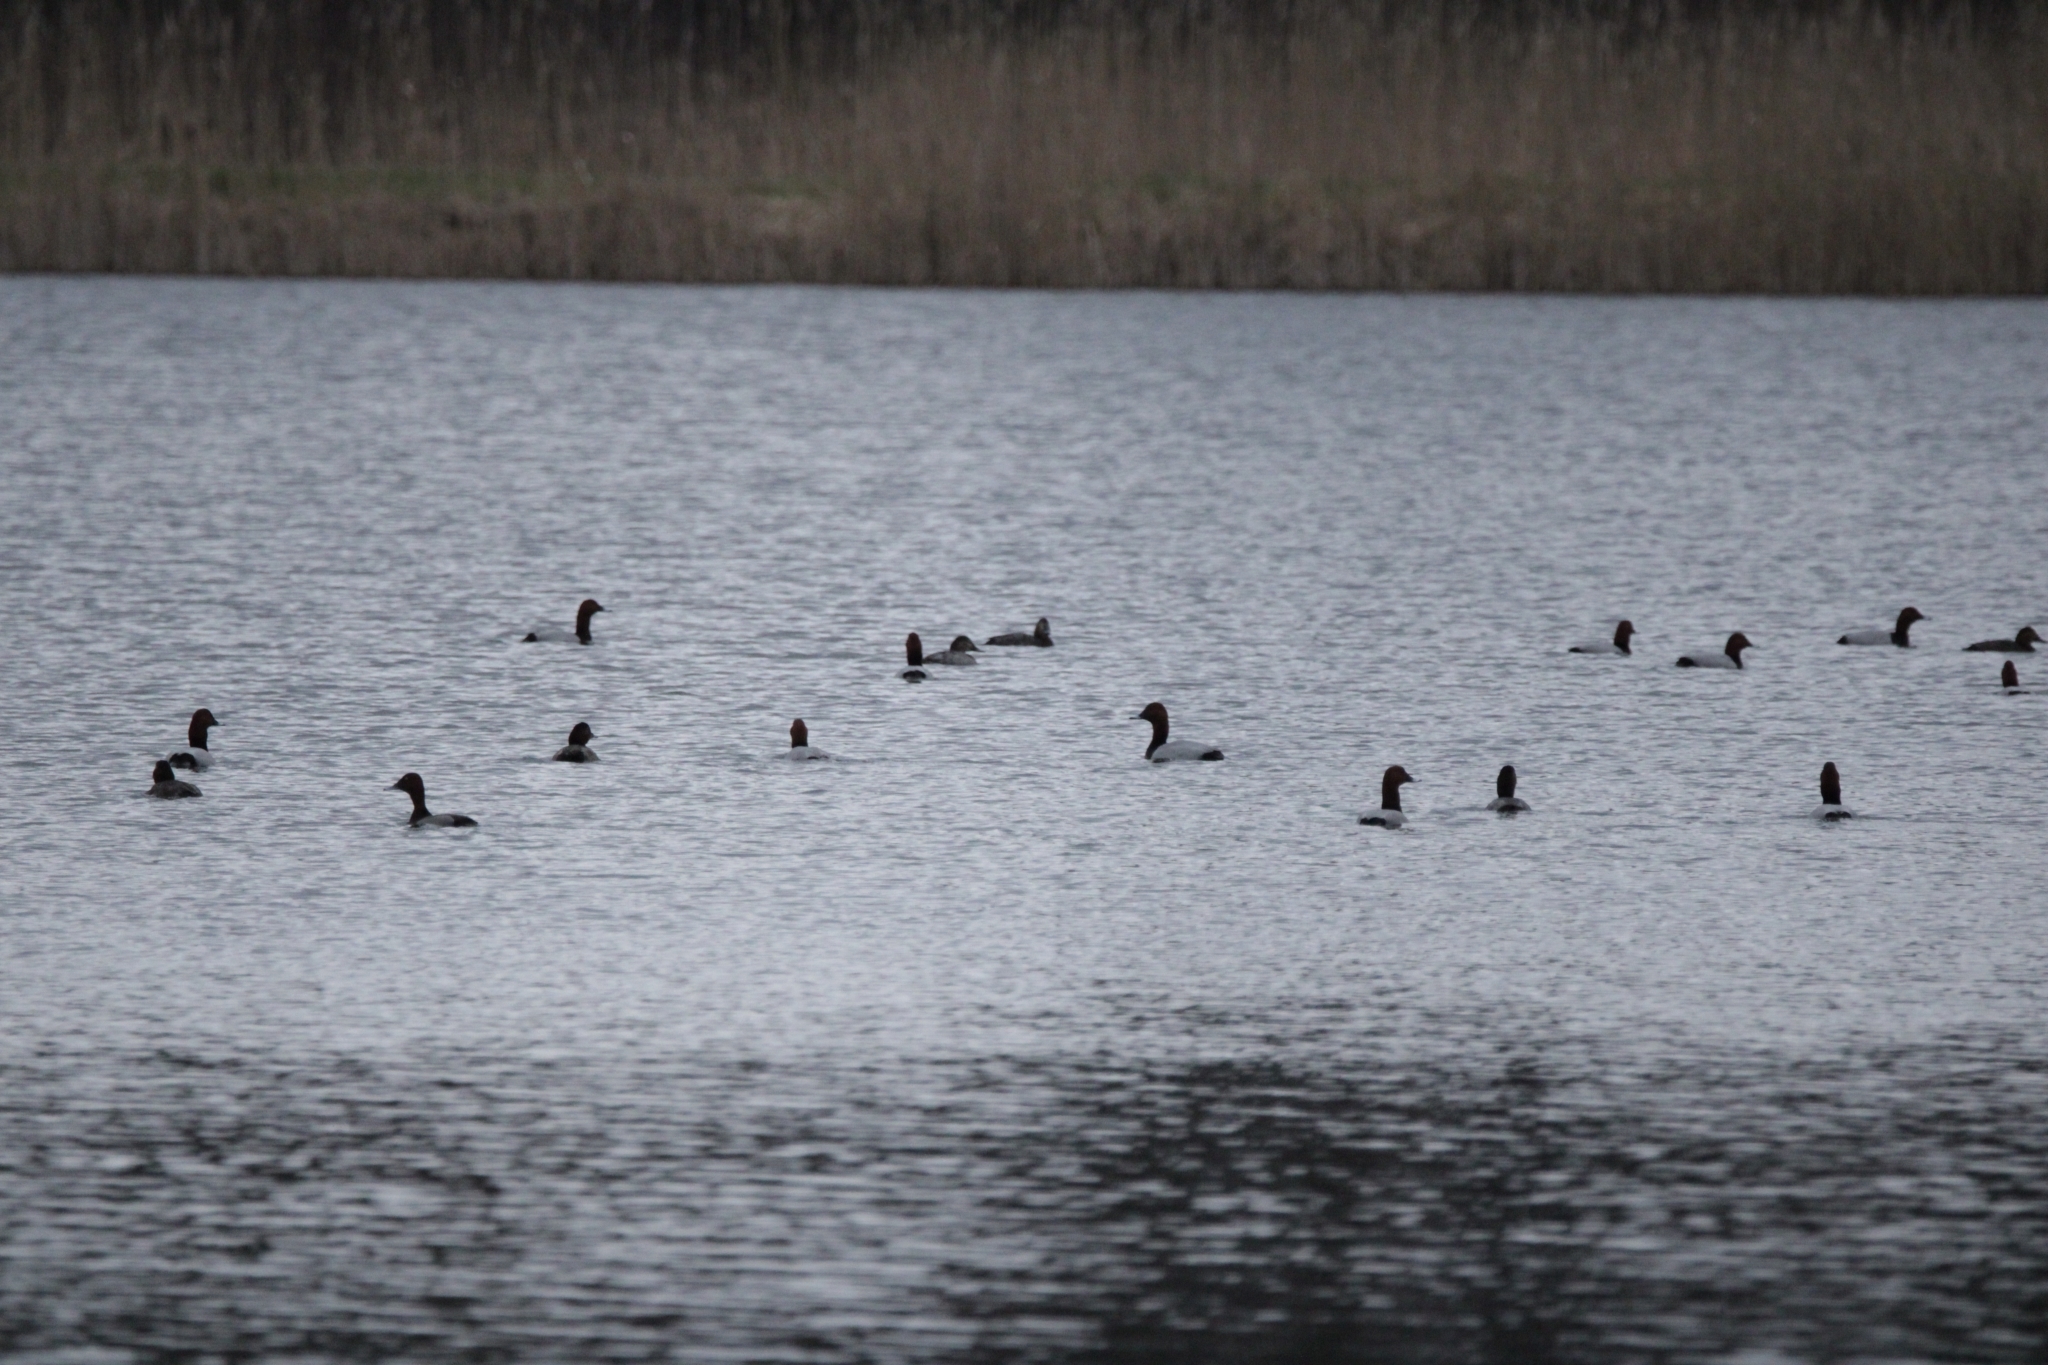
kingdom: Animalia
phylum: Chordata
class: Aves
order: Anseriformes
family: Anatidae
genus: Aythya
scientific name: Aythya ferina
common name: Common pochard
